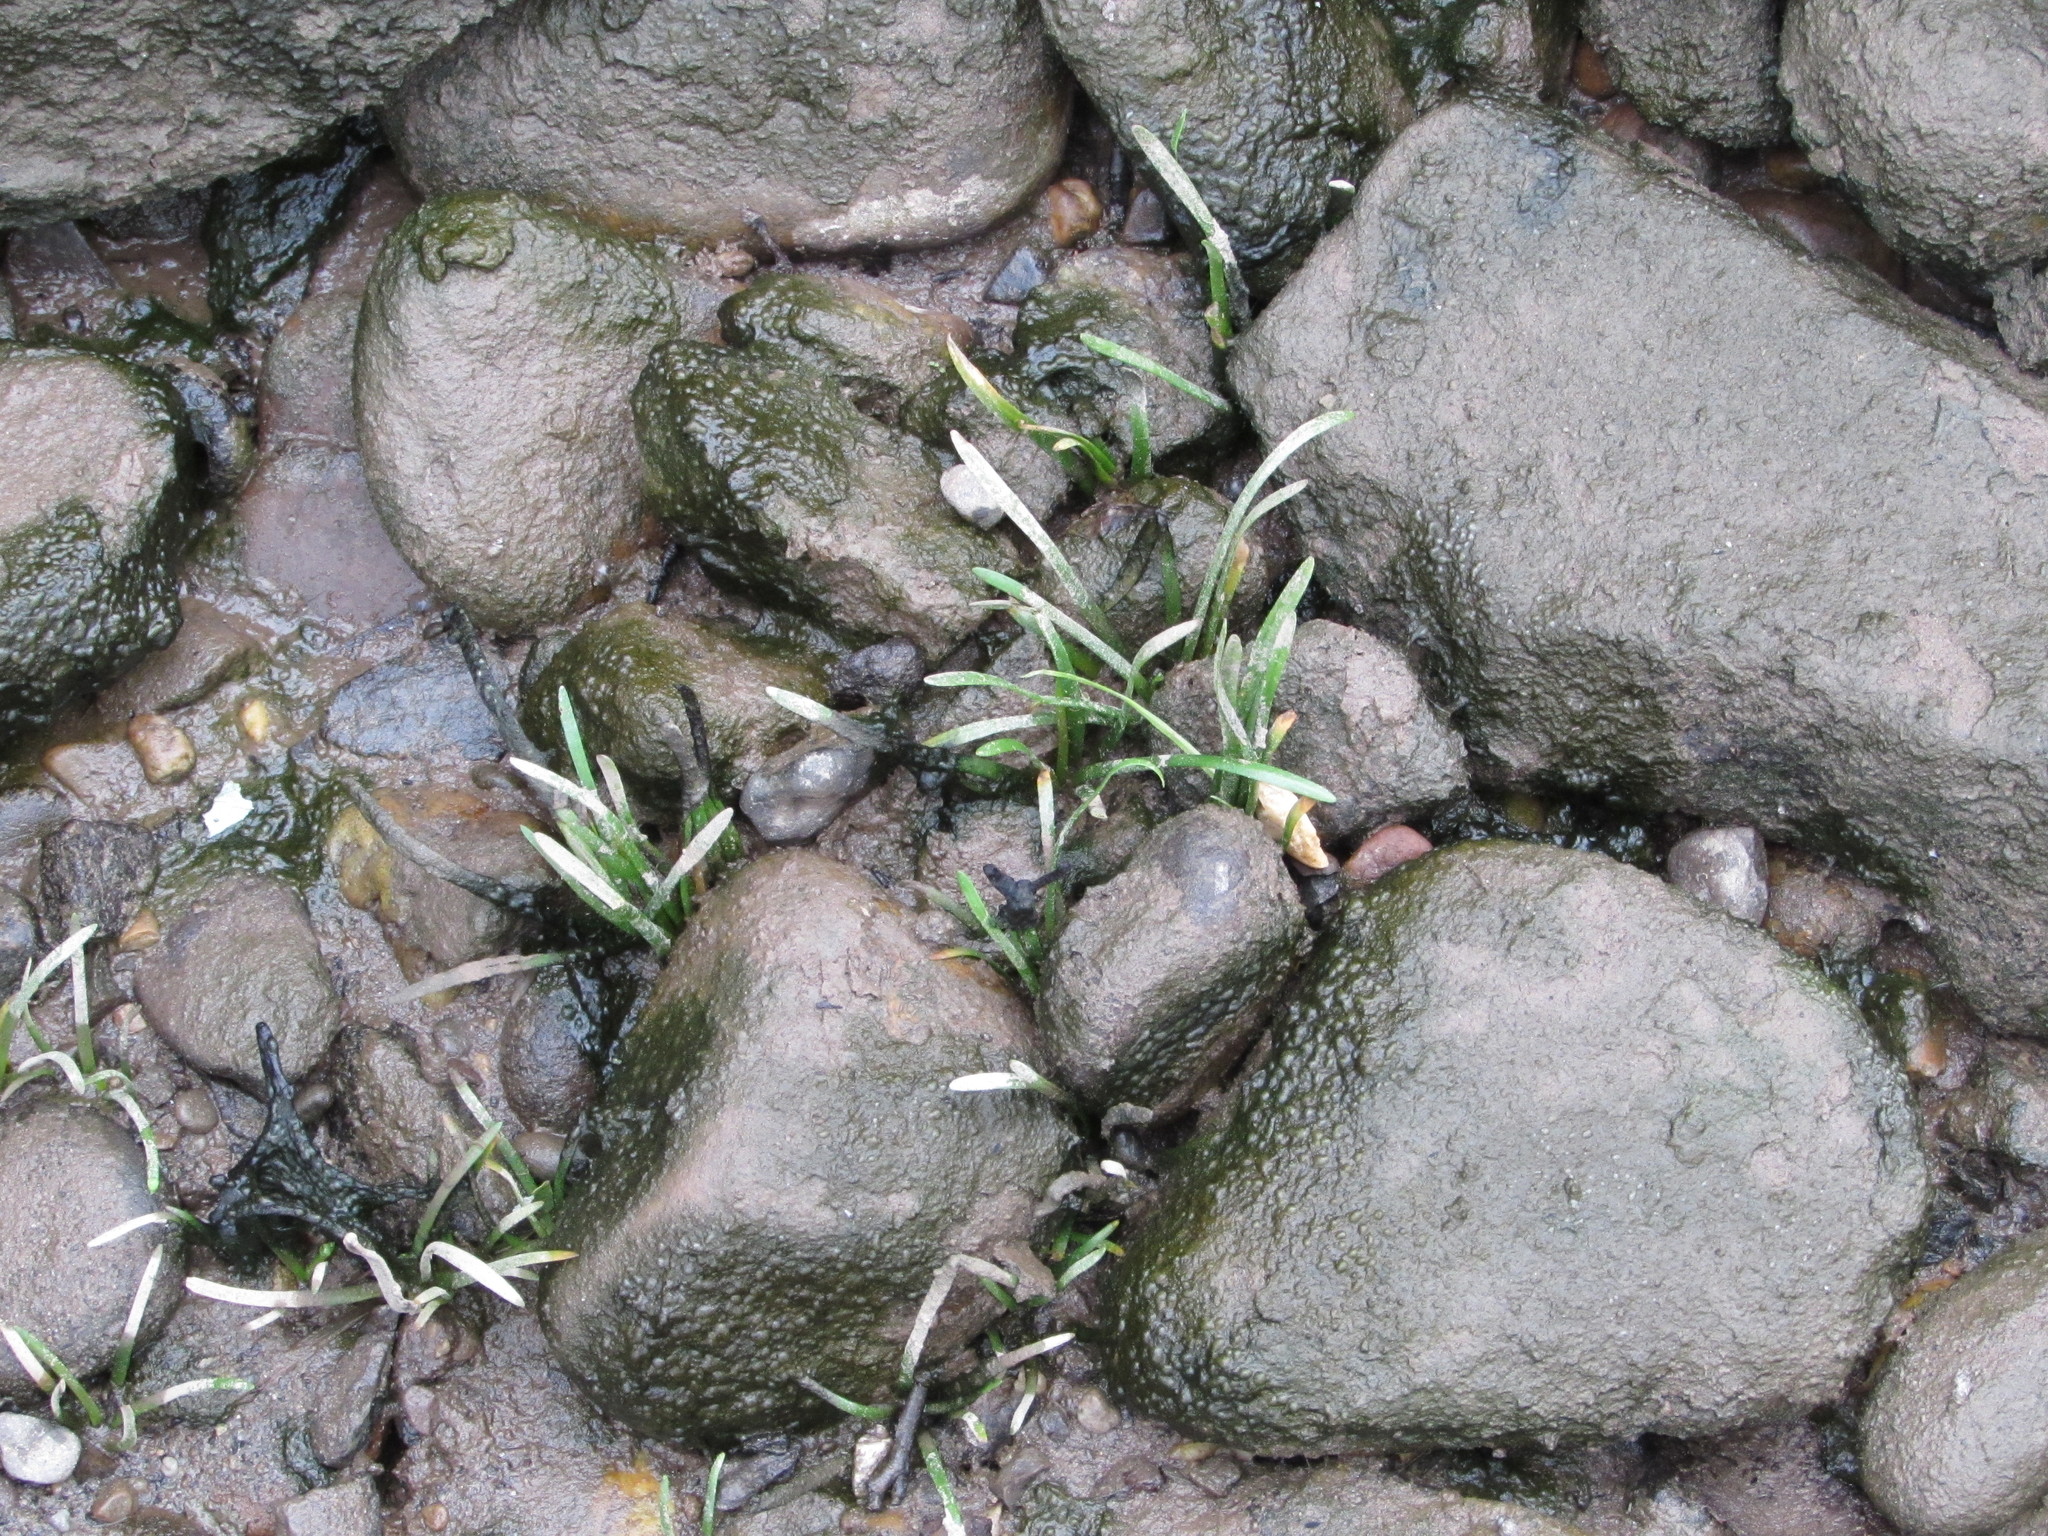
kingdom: Plantae
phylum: Tracheophyta
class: Liliopsida
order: Alismatales
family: Alismataceae
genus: Sagittaria
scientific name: Sagittaria subulata
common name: Narrow-leaved arrowhead
